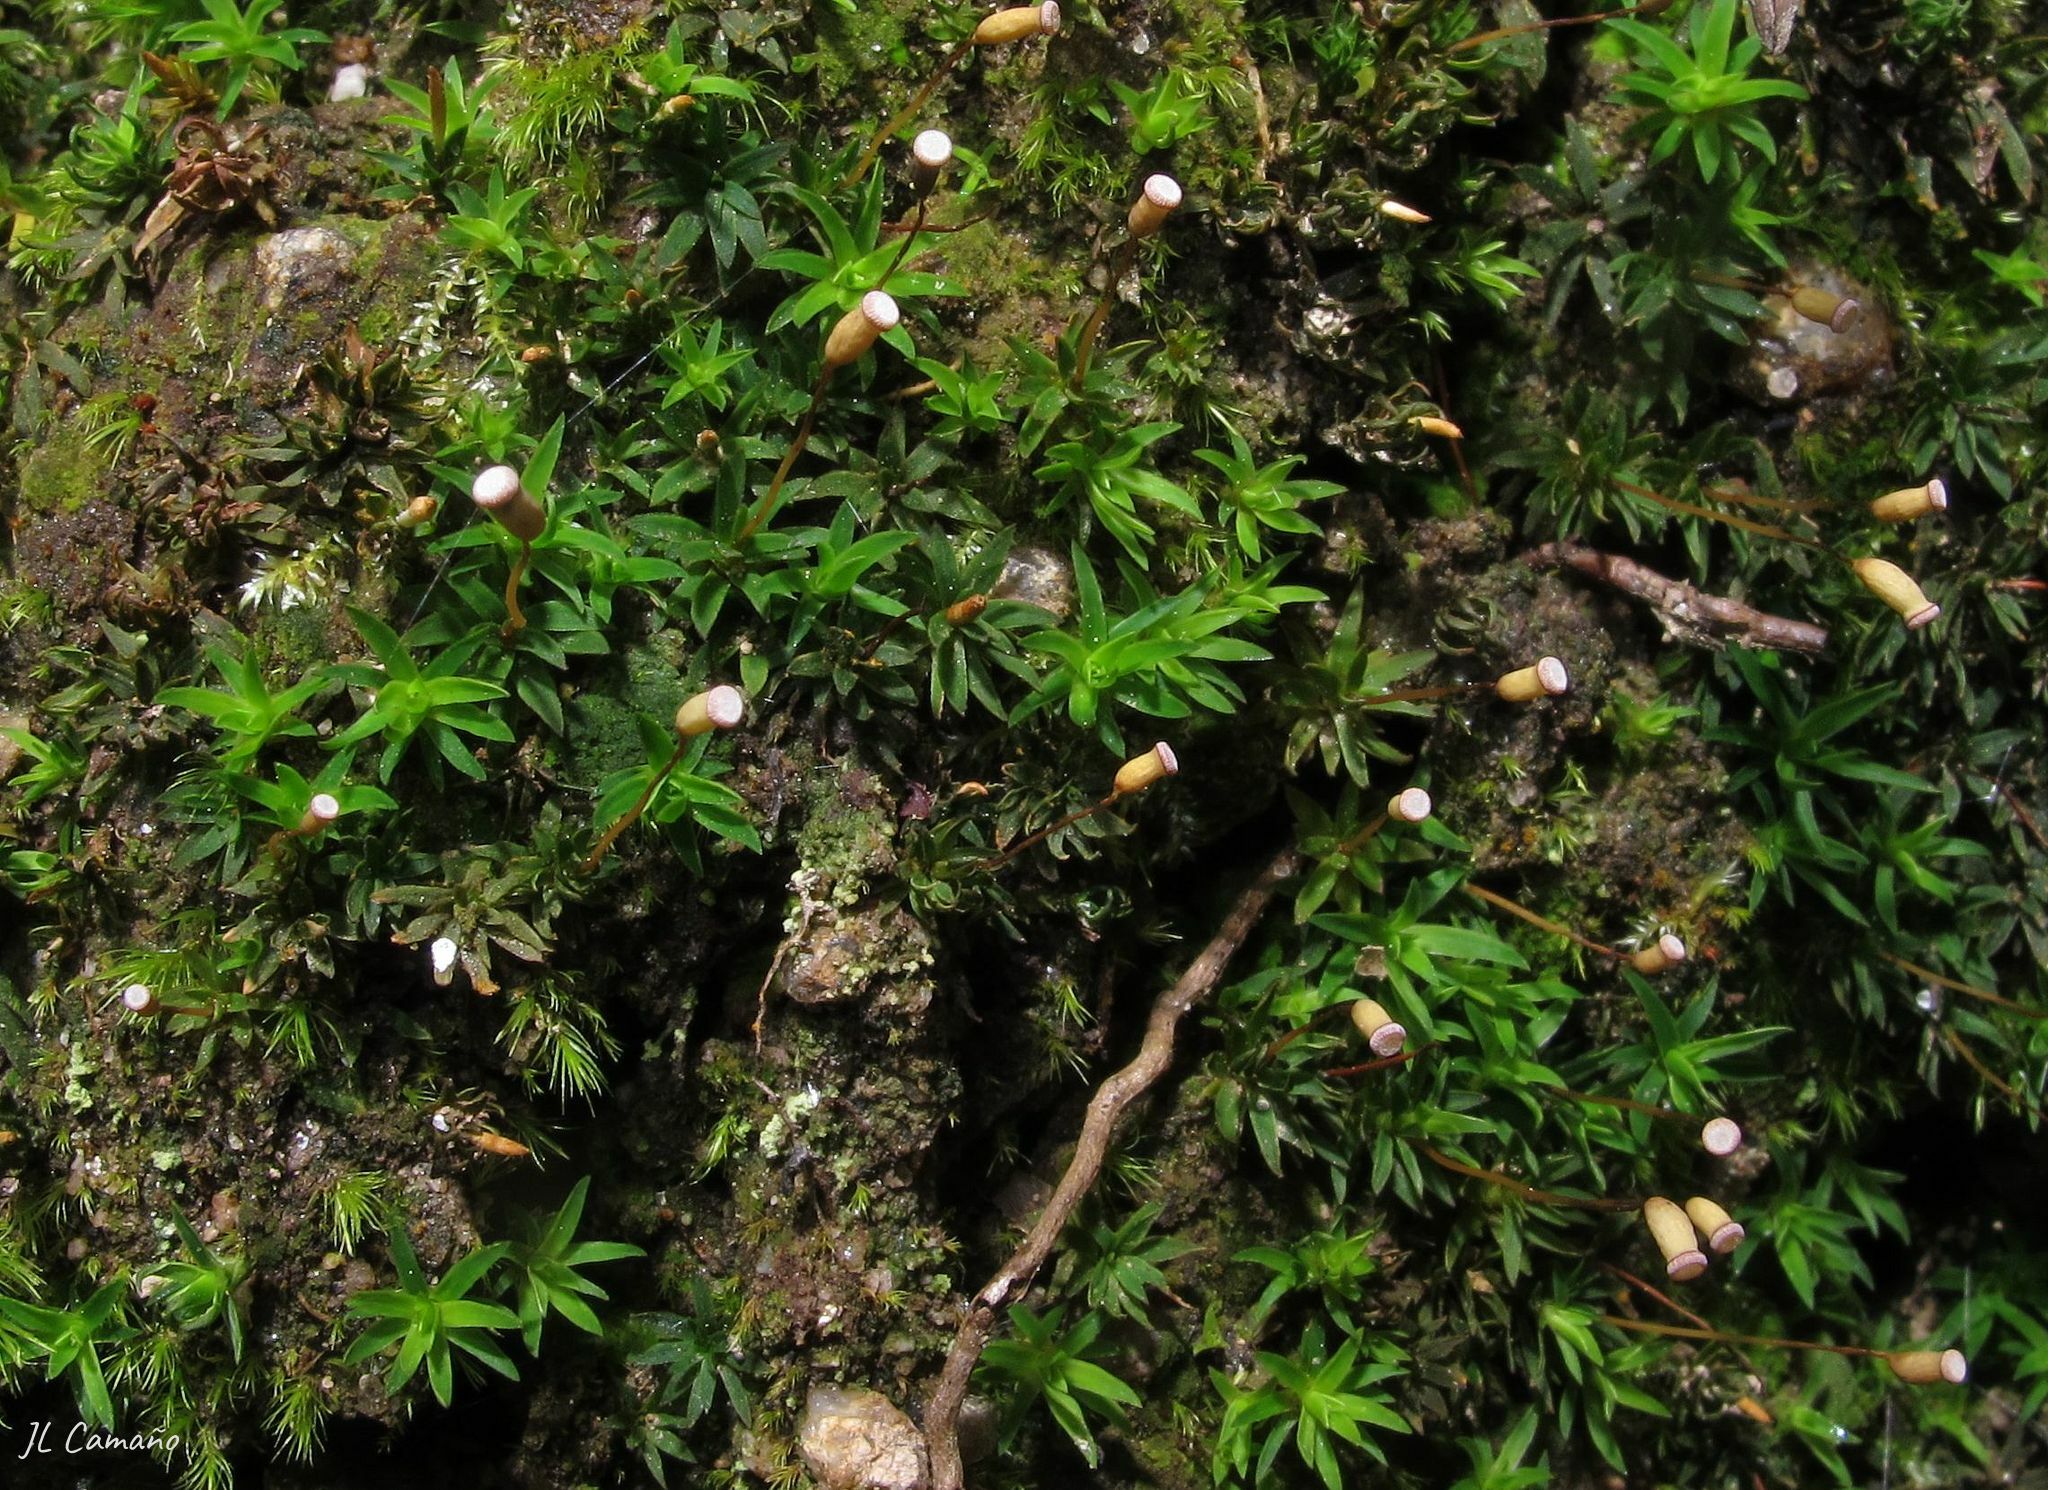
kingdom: Plantae
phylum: Bryophyta
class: Polytrichopsida
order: Polytrichales
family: Polytrichaceae
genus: Pogonatum
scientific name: Pogonatum aloides
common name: Aloe haircap
